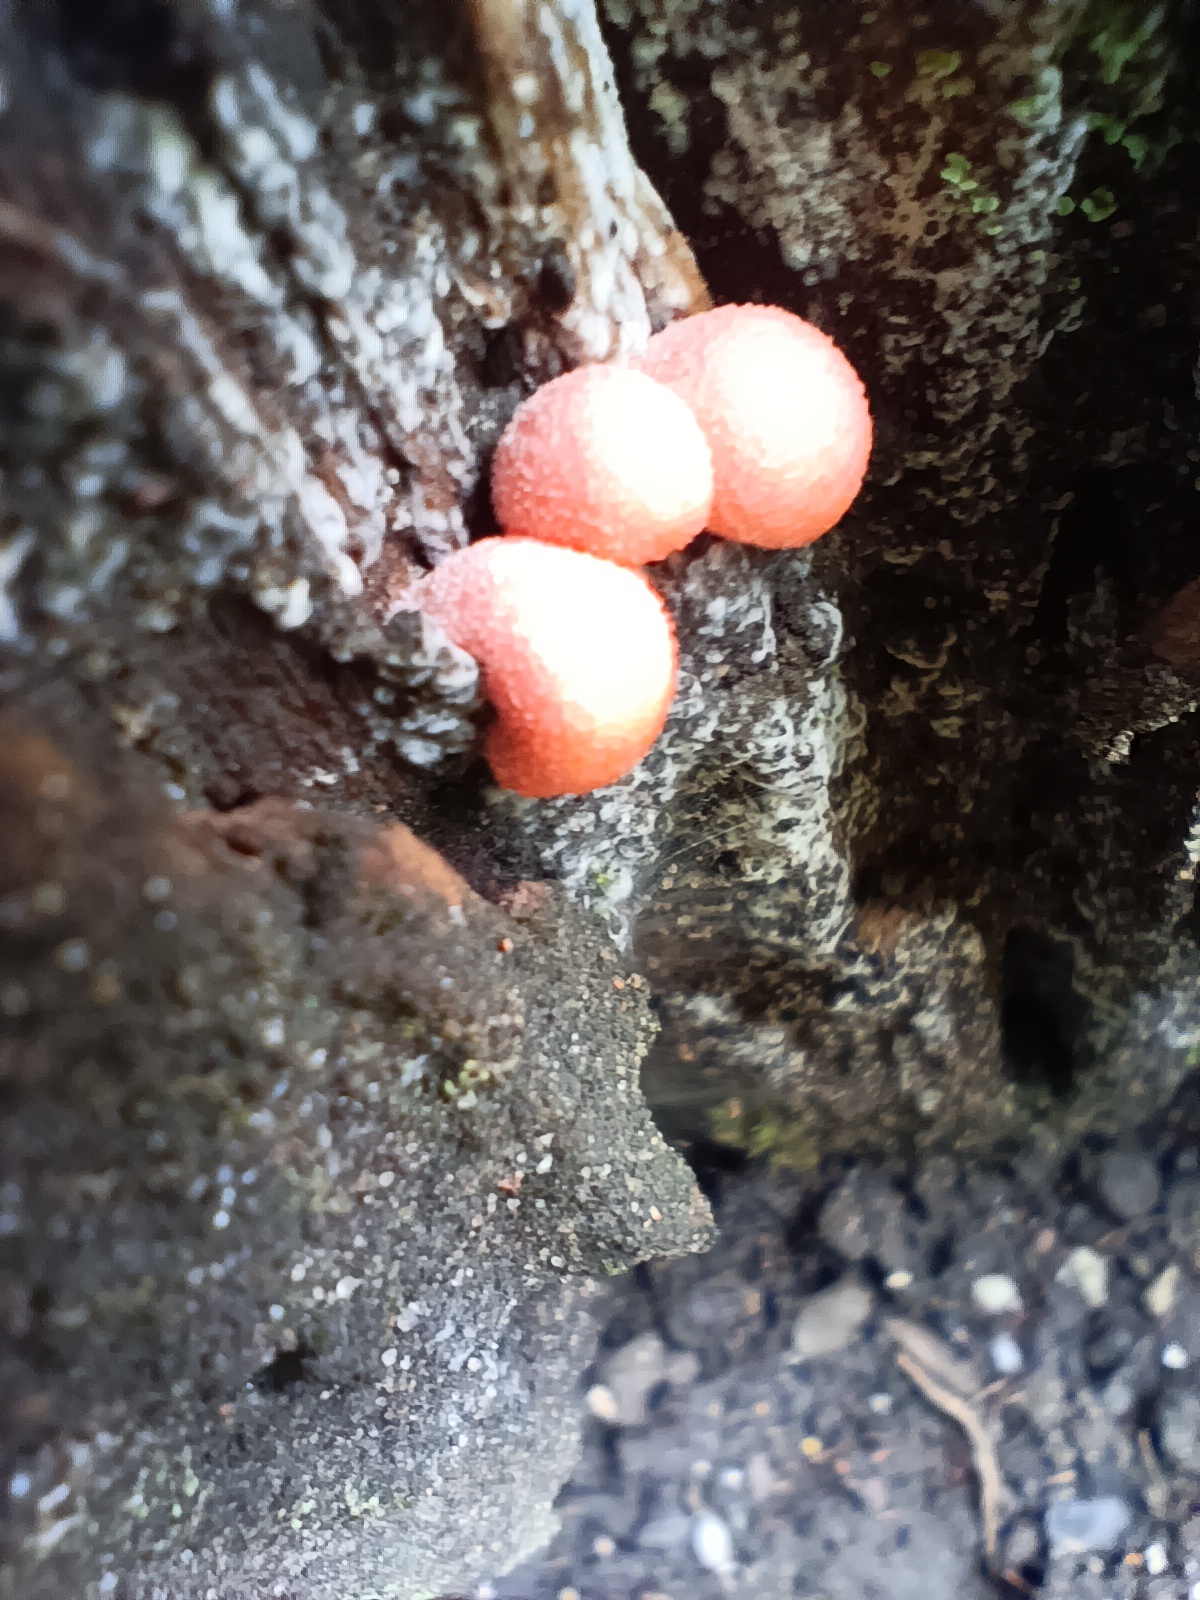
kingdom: Protozoa
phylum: Mycetozoa
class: Myxomycetes
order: Cribrariales
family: Tubiferaceae
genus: Lycogala
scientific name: Lycogala
